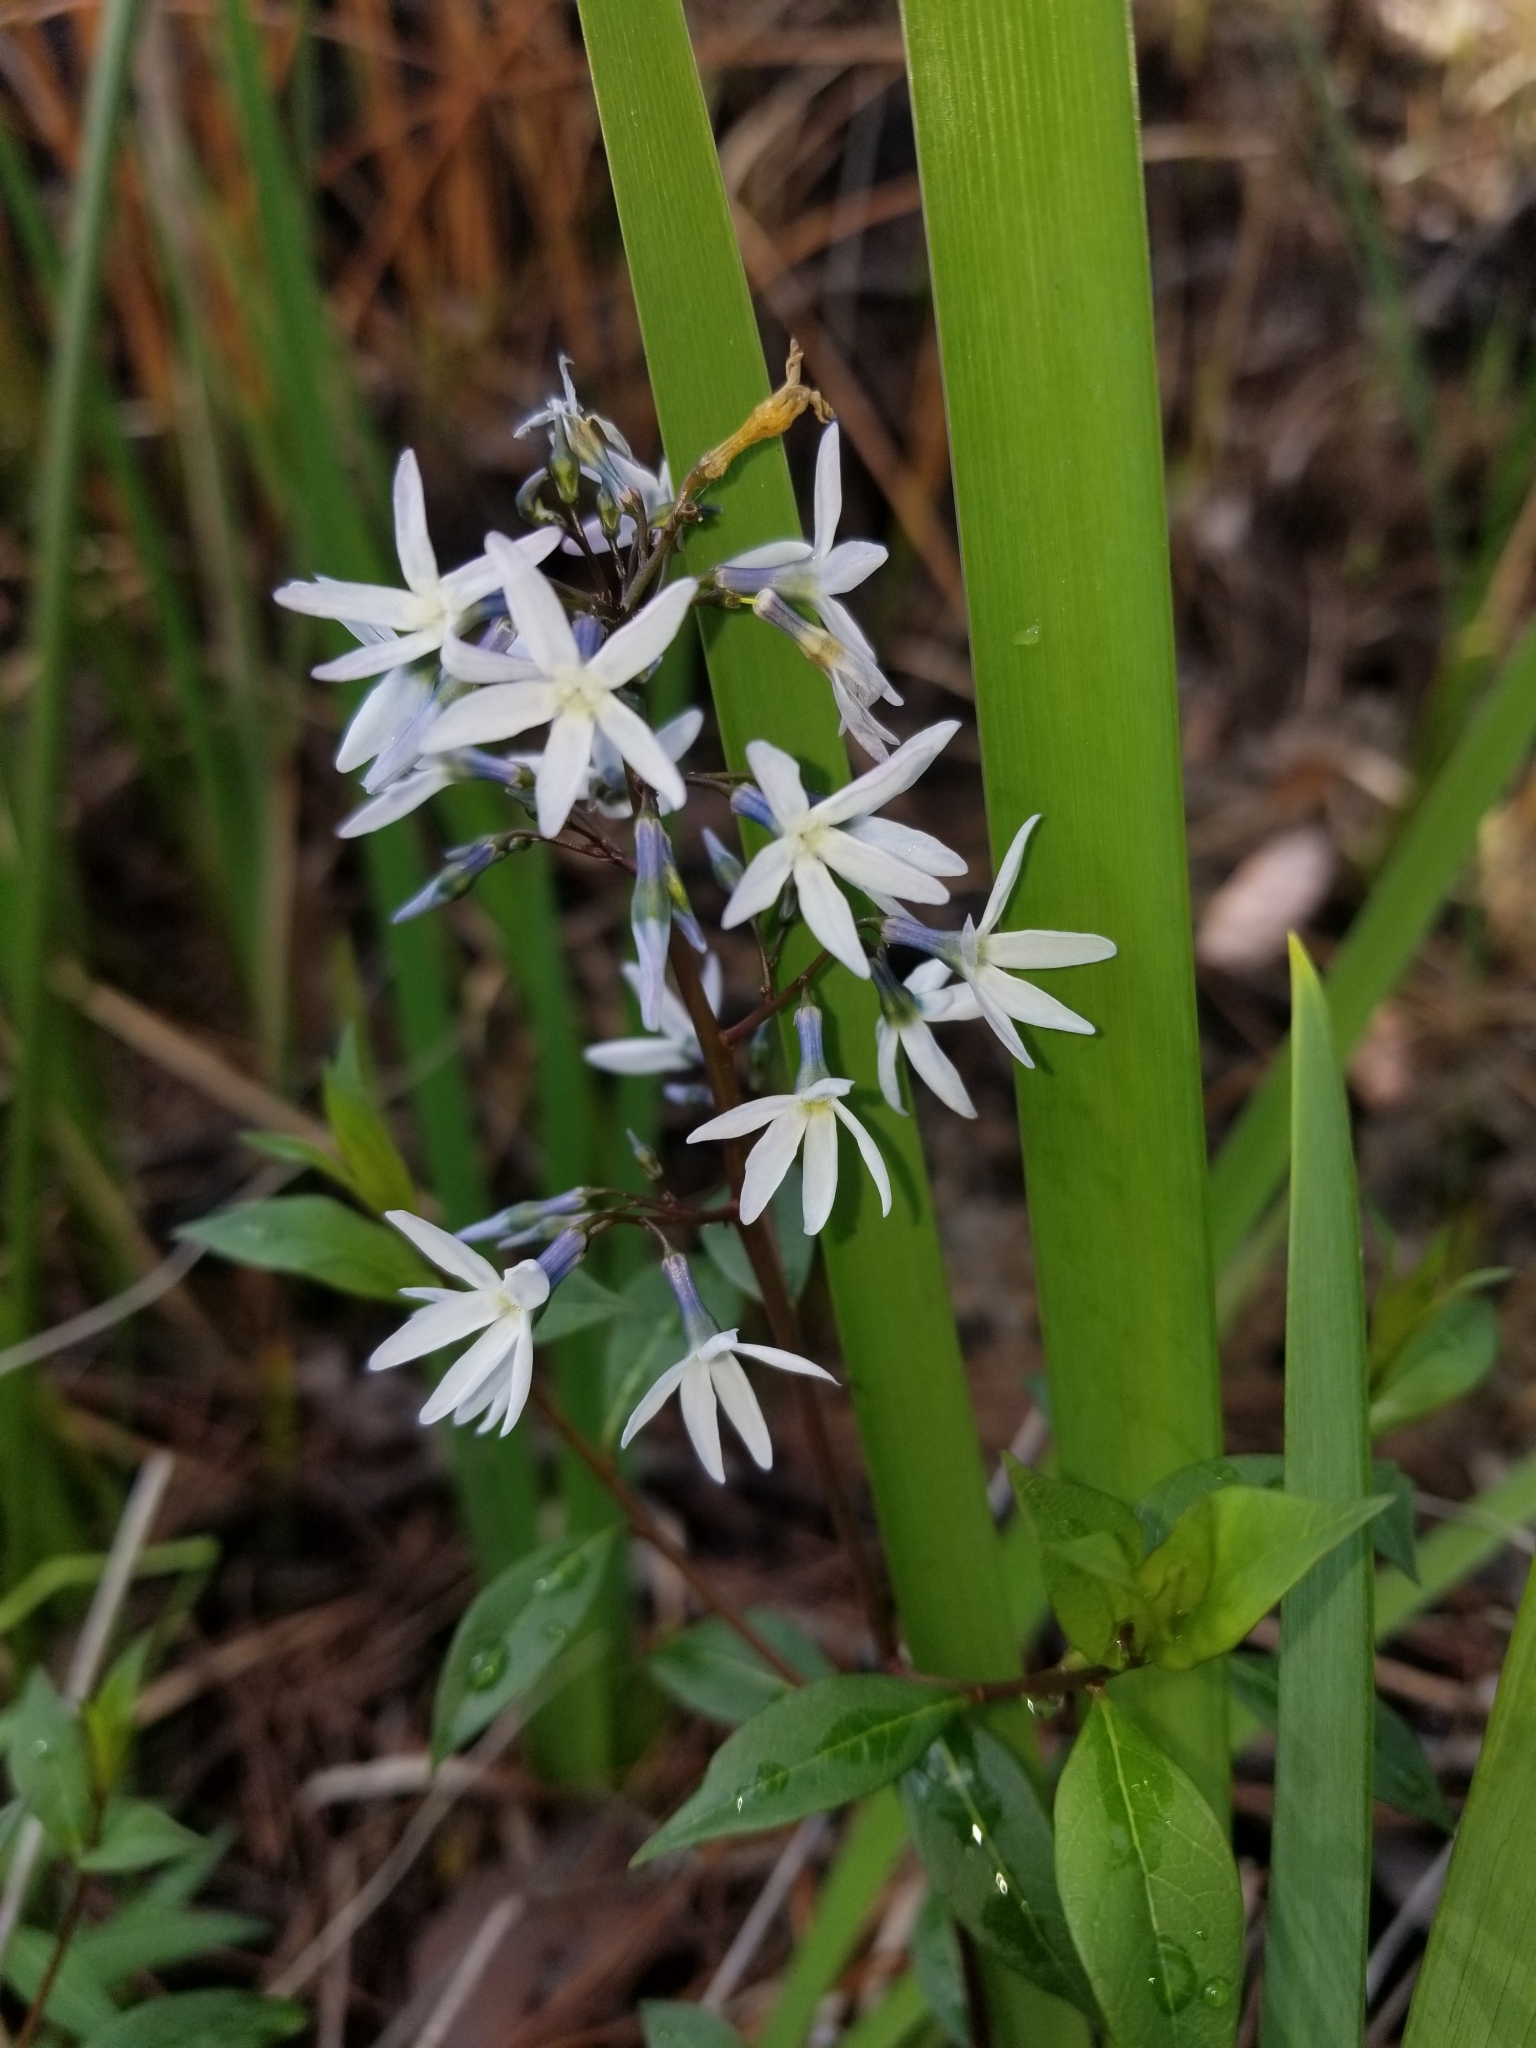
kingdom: Plantae
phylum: Tracheophyta
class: Magnoliopsida
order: Gentianales
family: Apocynaceae
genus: Amsonia
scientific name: Amsonia tabernaemontana
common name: Texas-star
